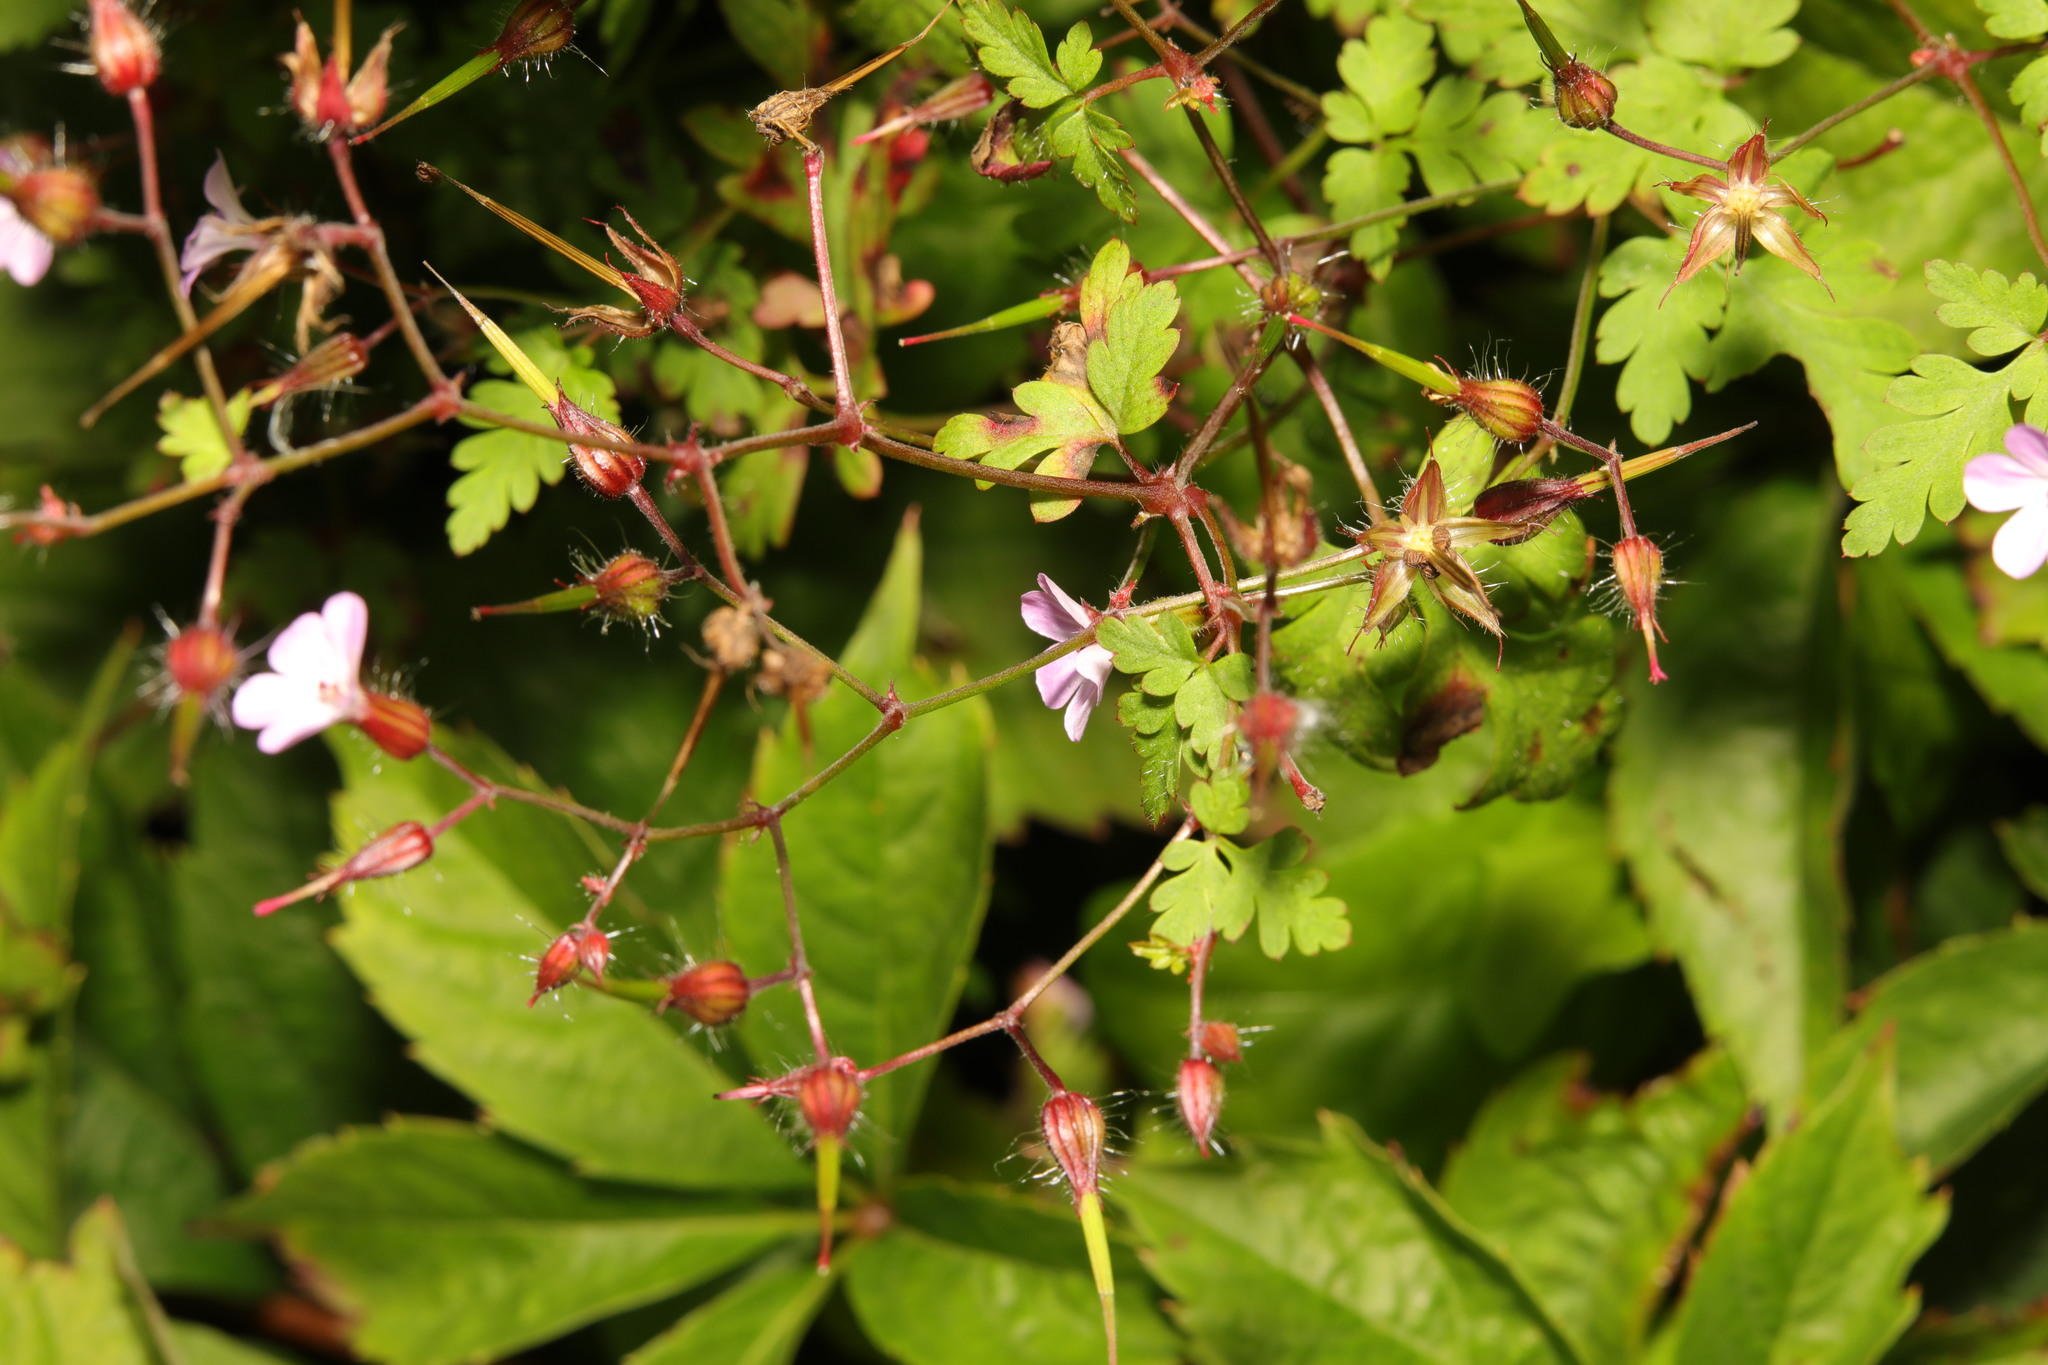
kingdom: Plantae
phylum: Tracheophyta
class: Magnoliopsida
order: Geraniales
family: Geraniaceae
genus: Geranium
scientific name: Geranium robertianum
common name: Herb-robert
